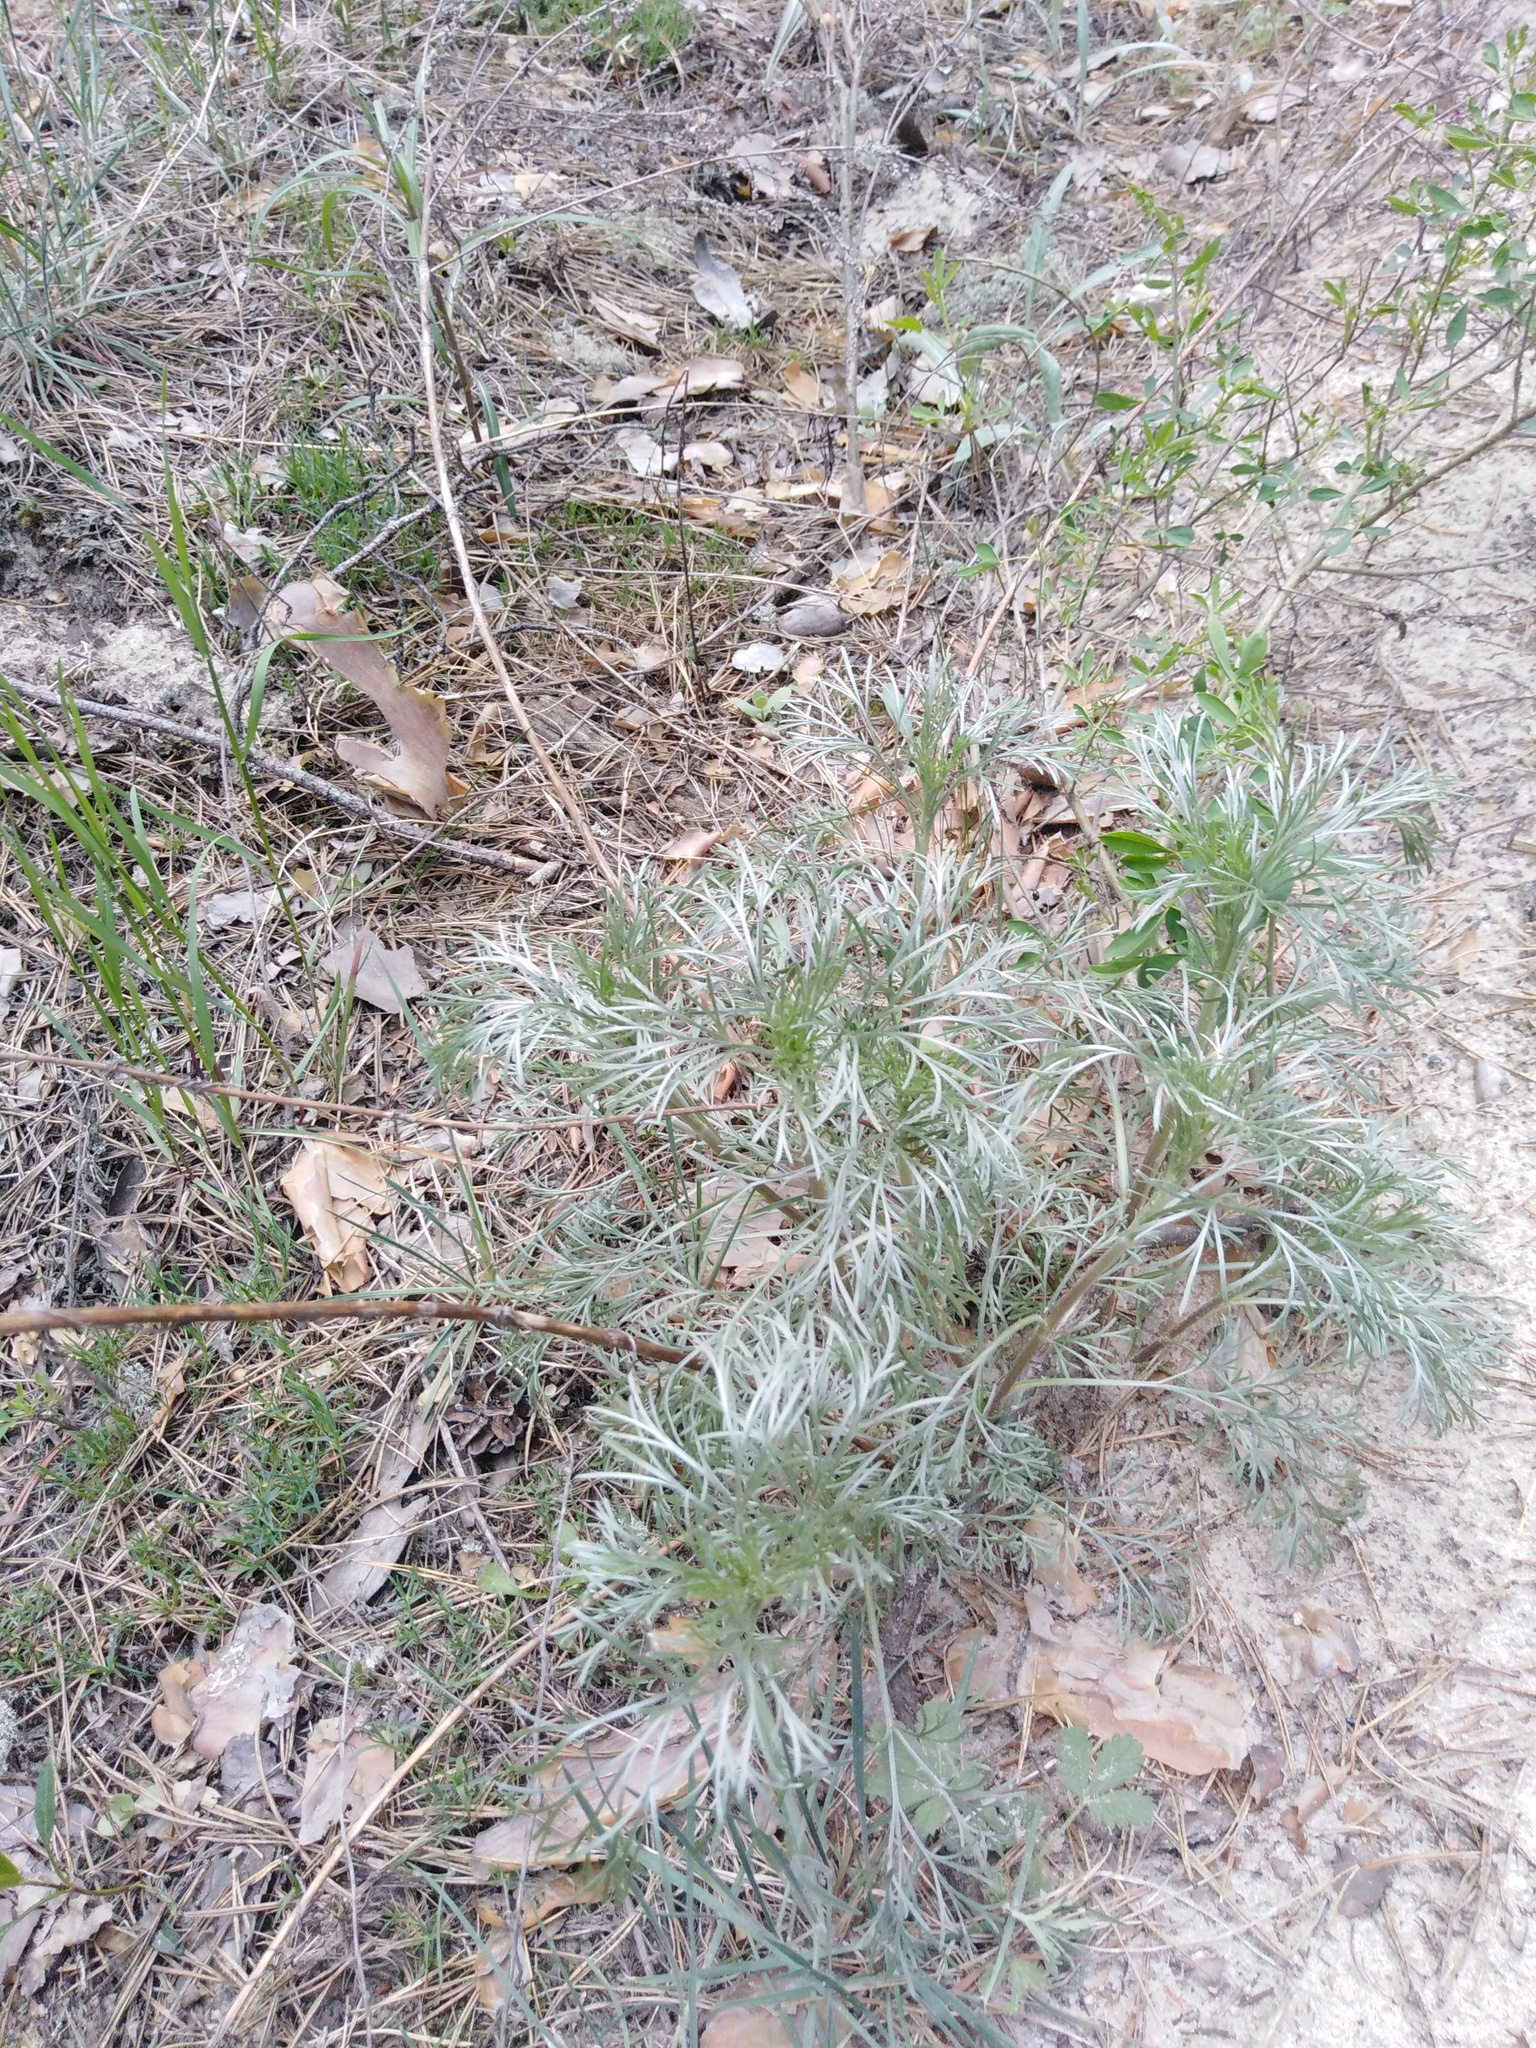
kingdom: Plantae
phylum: Tracheophyta
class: Magnoliopsida
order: Asterales
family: Asteraceae
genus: Artemisia
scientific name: Artemisia campestris
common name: Field wormwood
